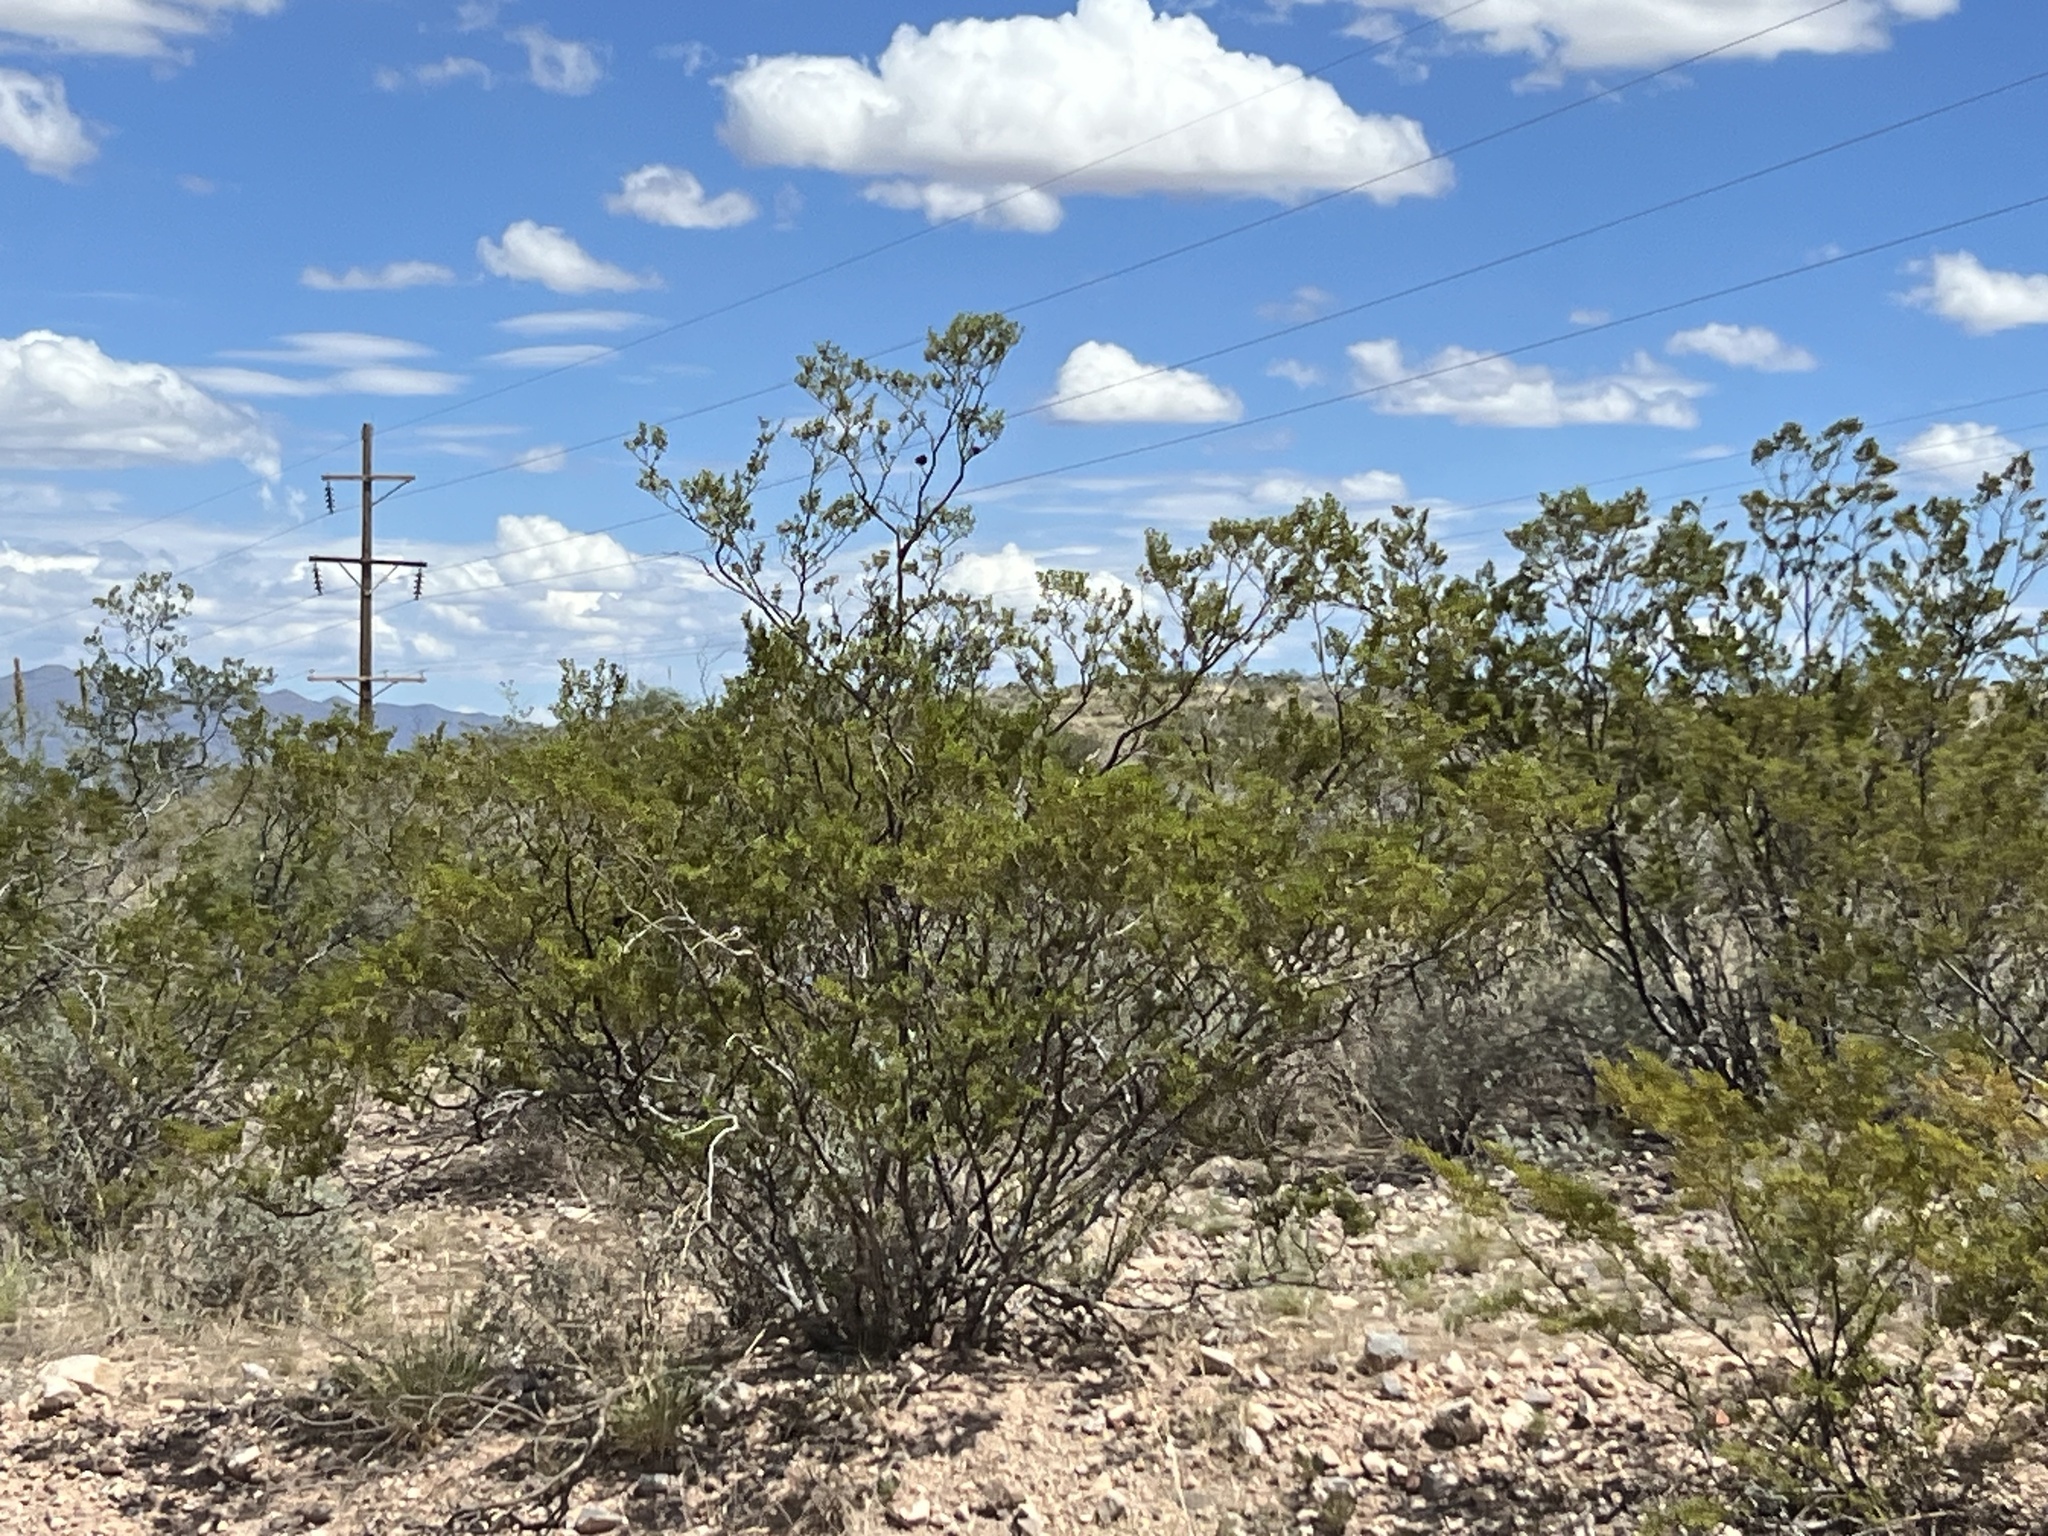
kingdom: Plantae
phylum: Tracheophyta
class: Magnoliopsida
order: Zygophyllales
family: Zygophyllaceae
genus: Larrea
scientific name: Larrea tridentata
